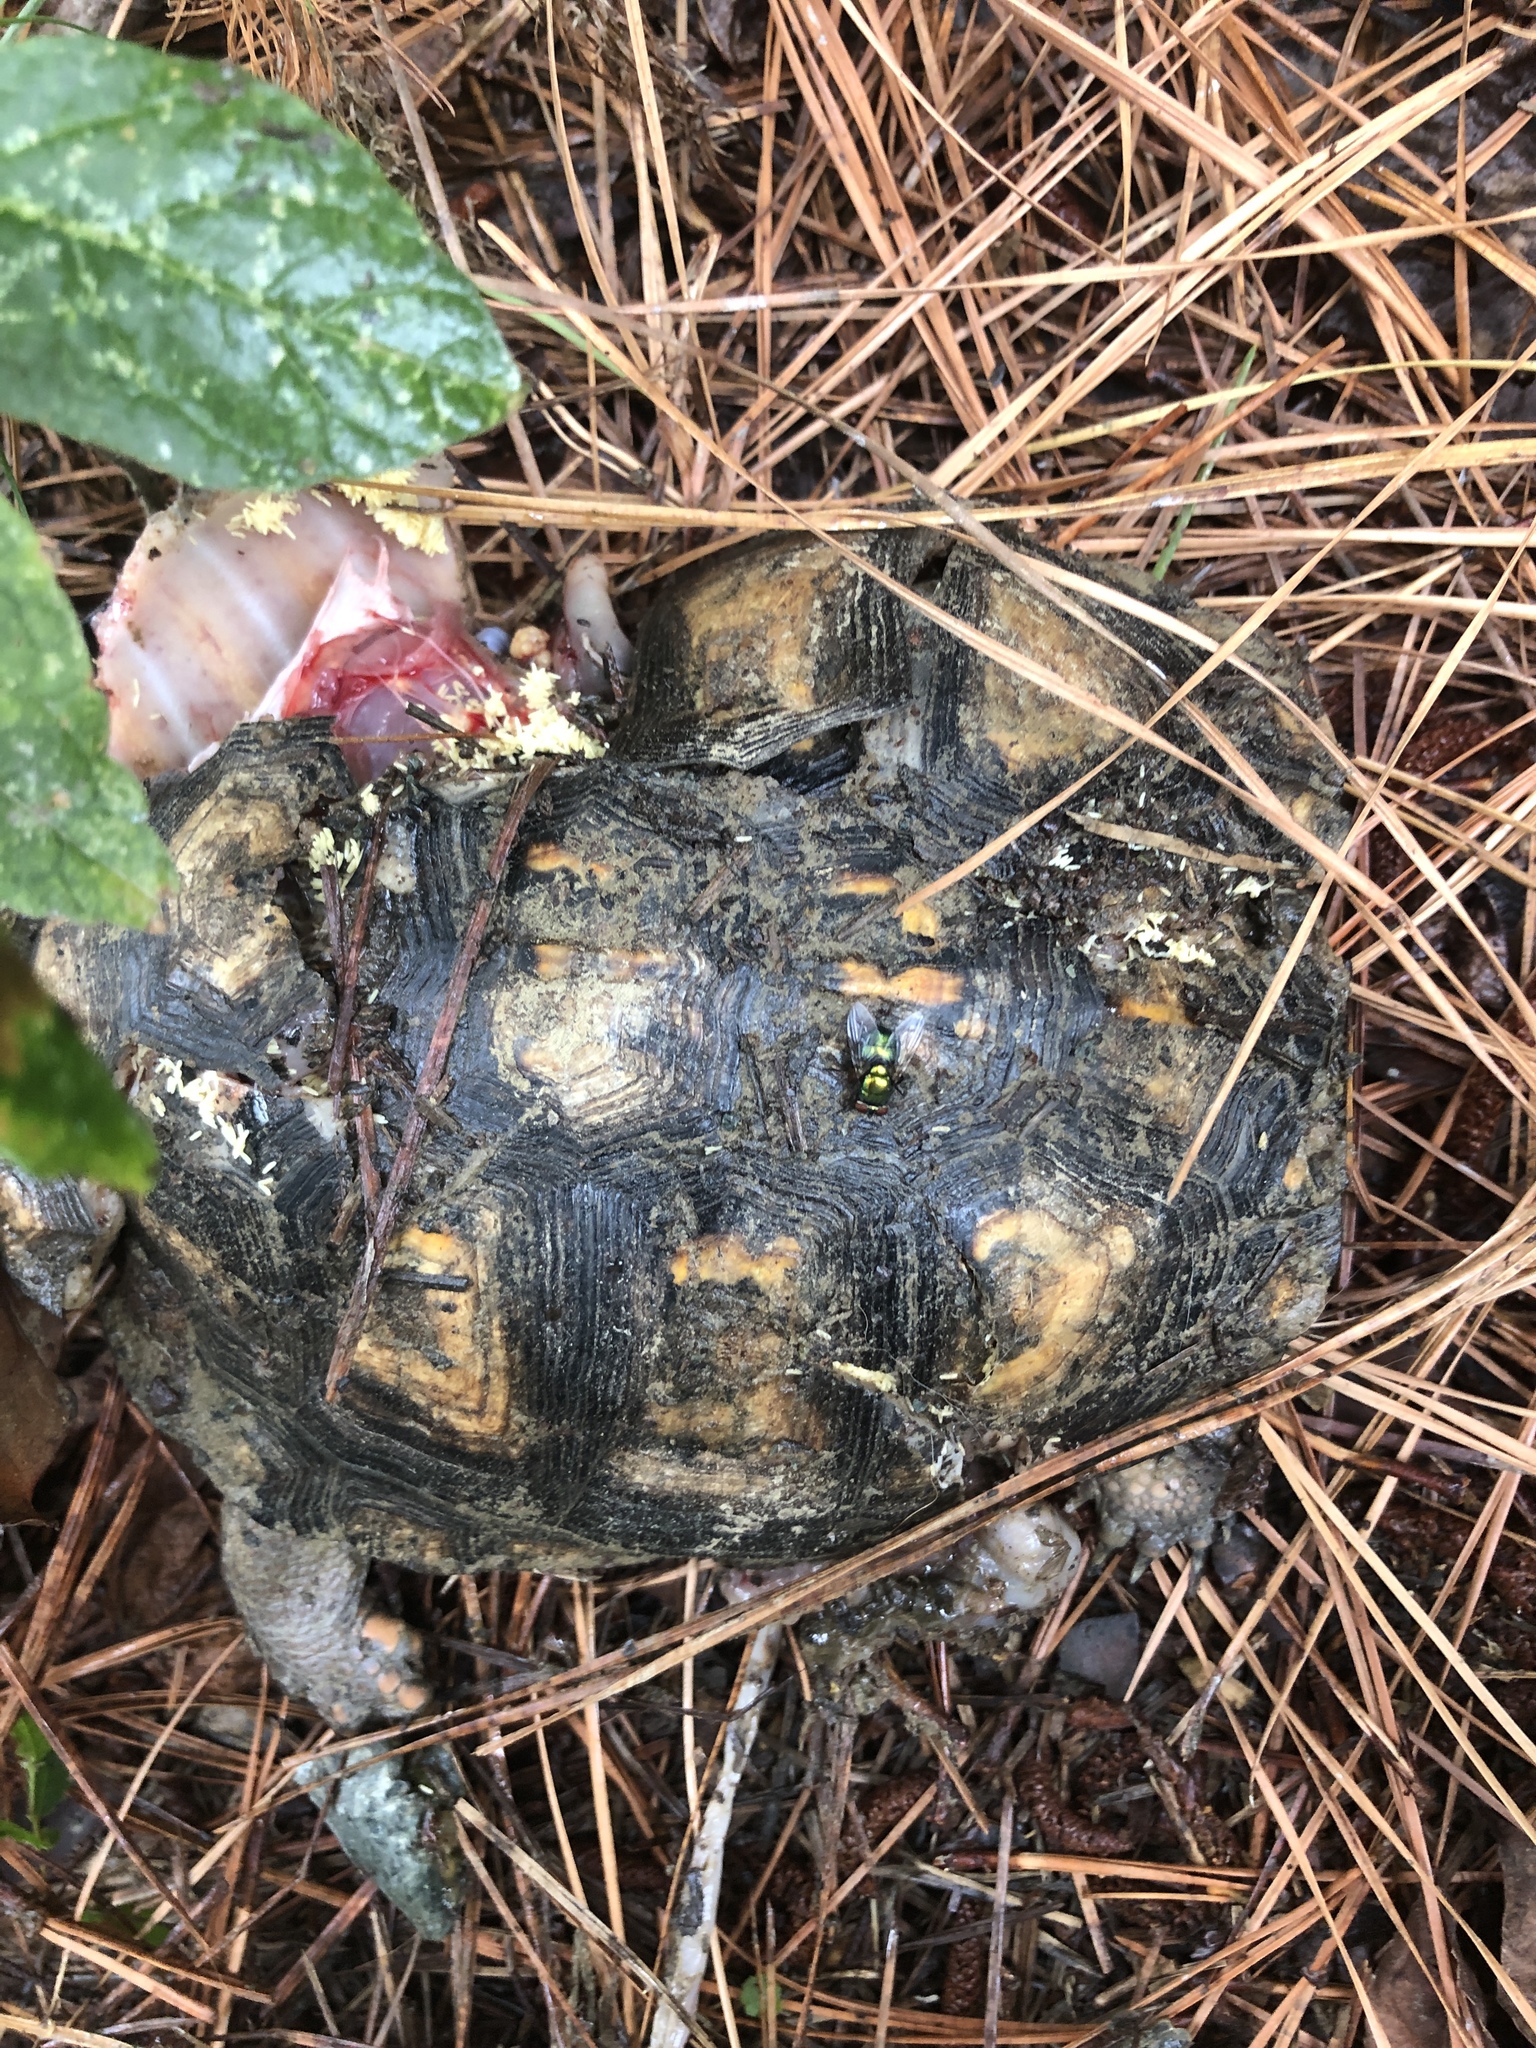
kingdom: Animalia
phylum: Chordata
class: Testudines
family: Emydidae
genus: Terrapene
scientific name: Terrapene carolina
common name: Common box turtle
